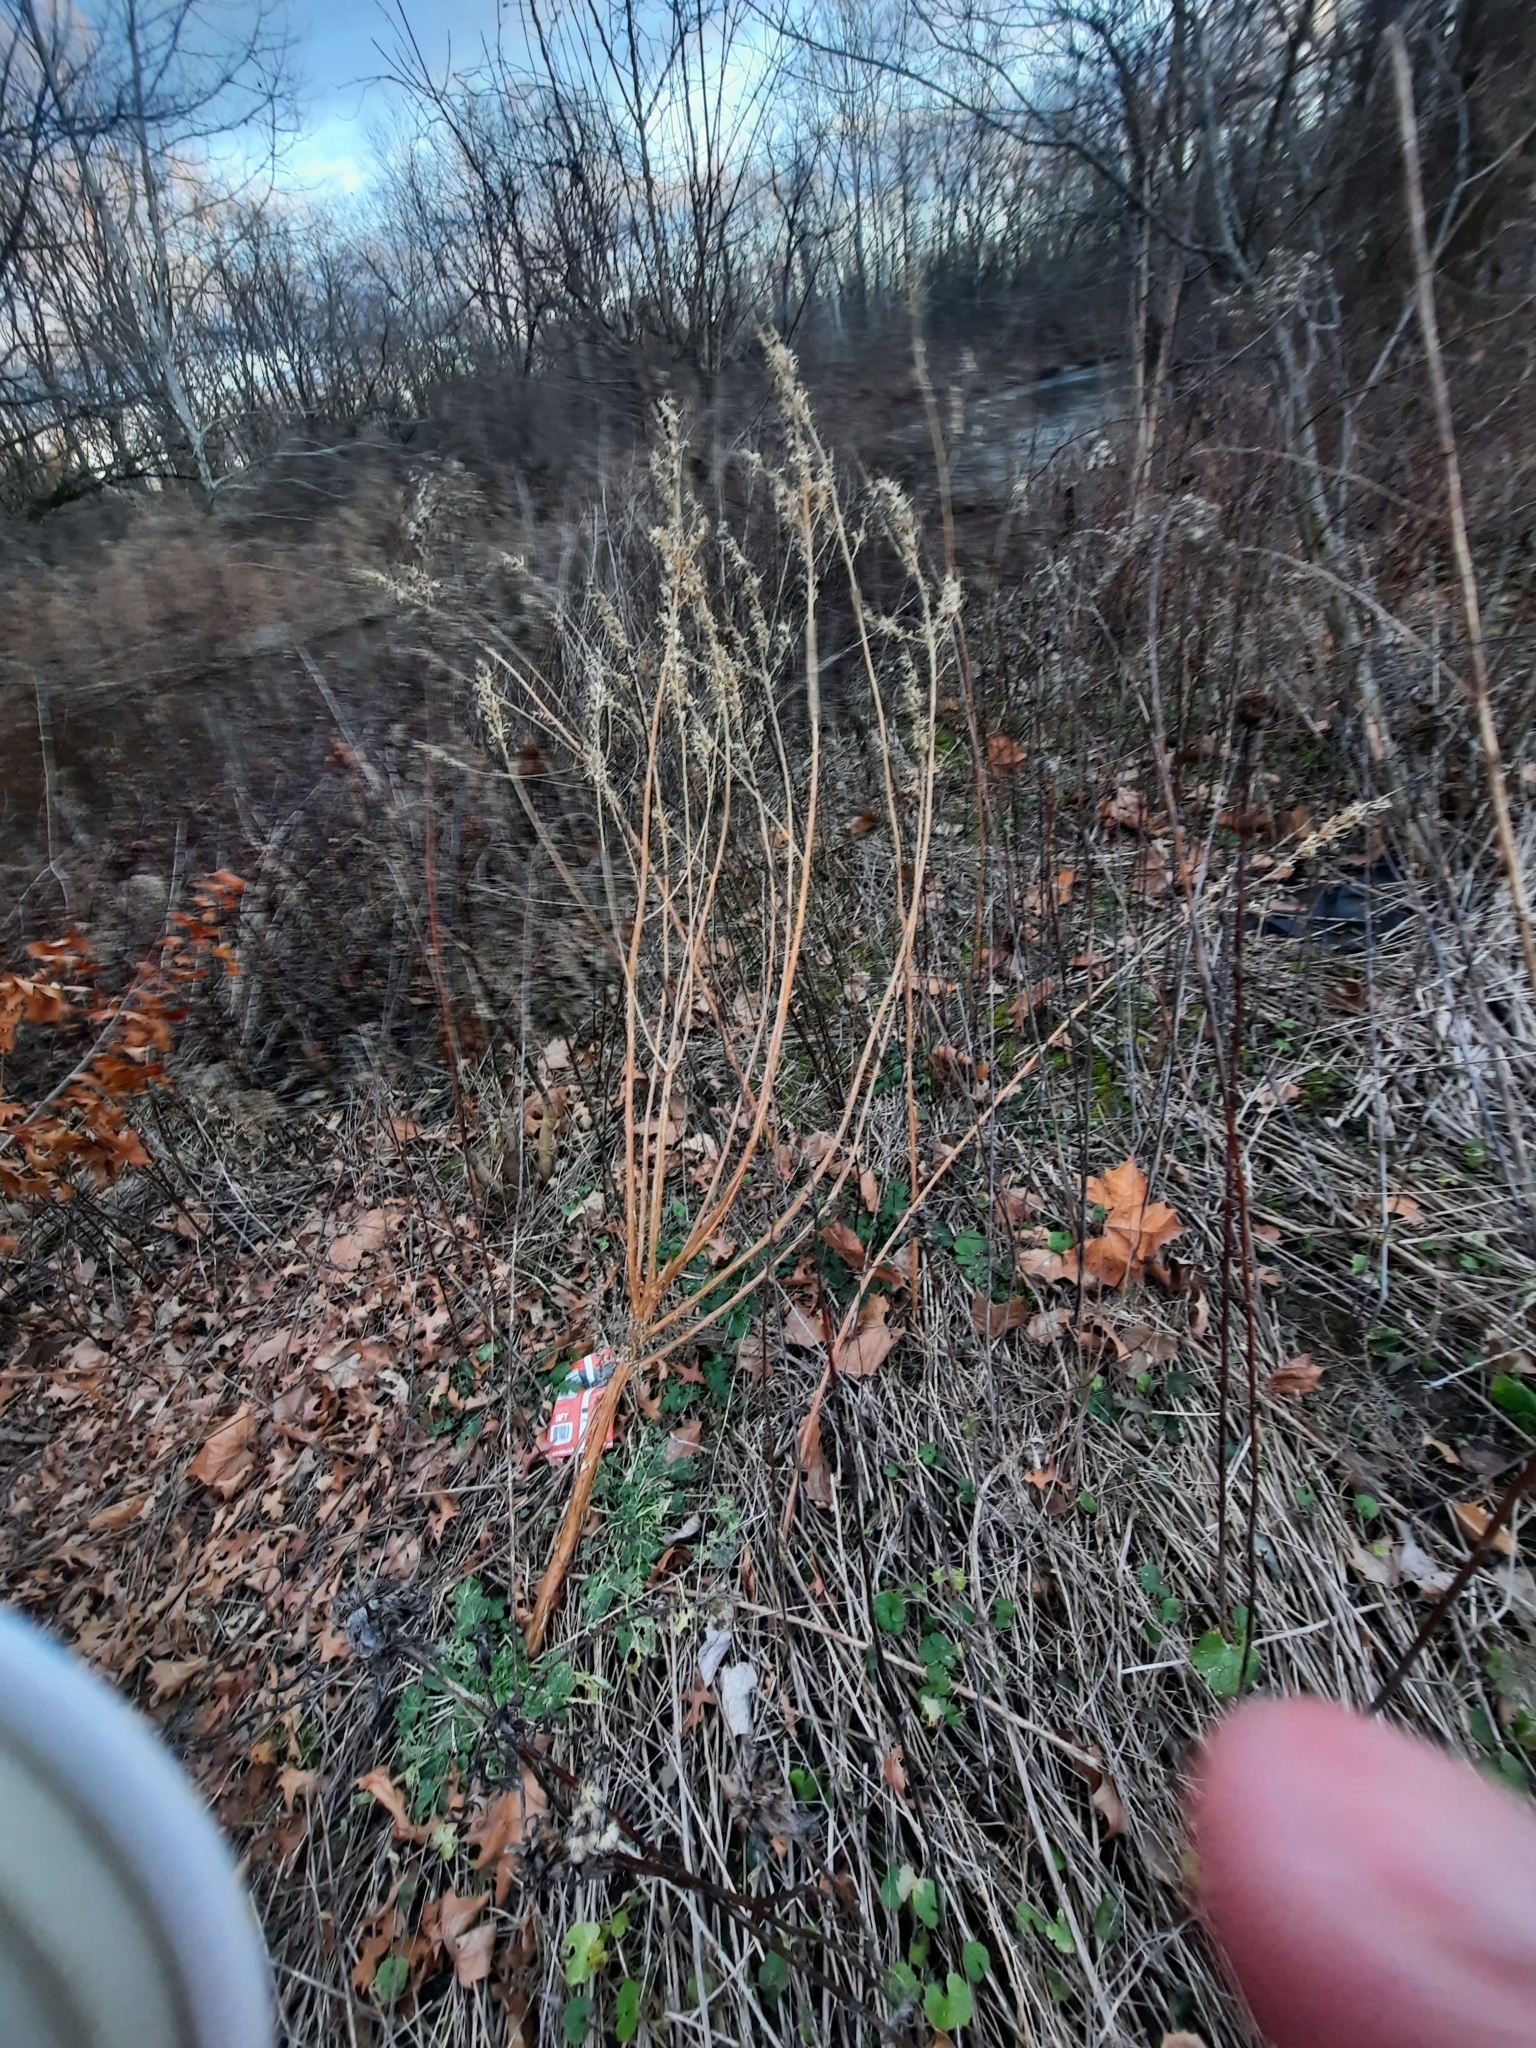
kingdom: Plantae
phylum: Tracheophyta
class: Magnoliopsida
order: Myrtales
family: Onagraceae
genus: Oenothera
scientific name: Oenothera biennis
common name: Common evening-primrose
